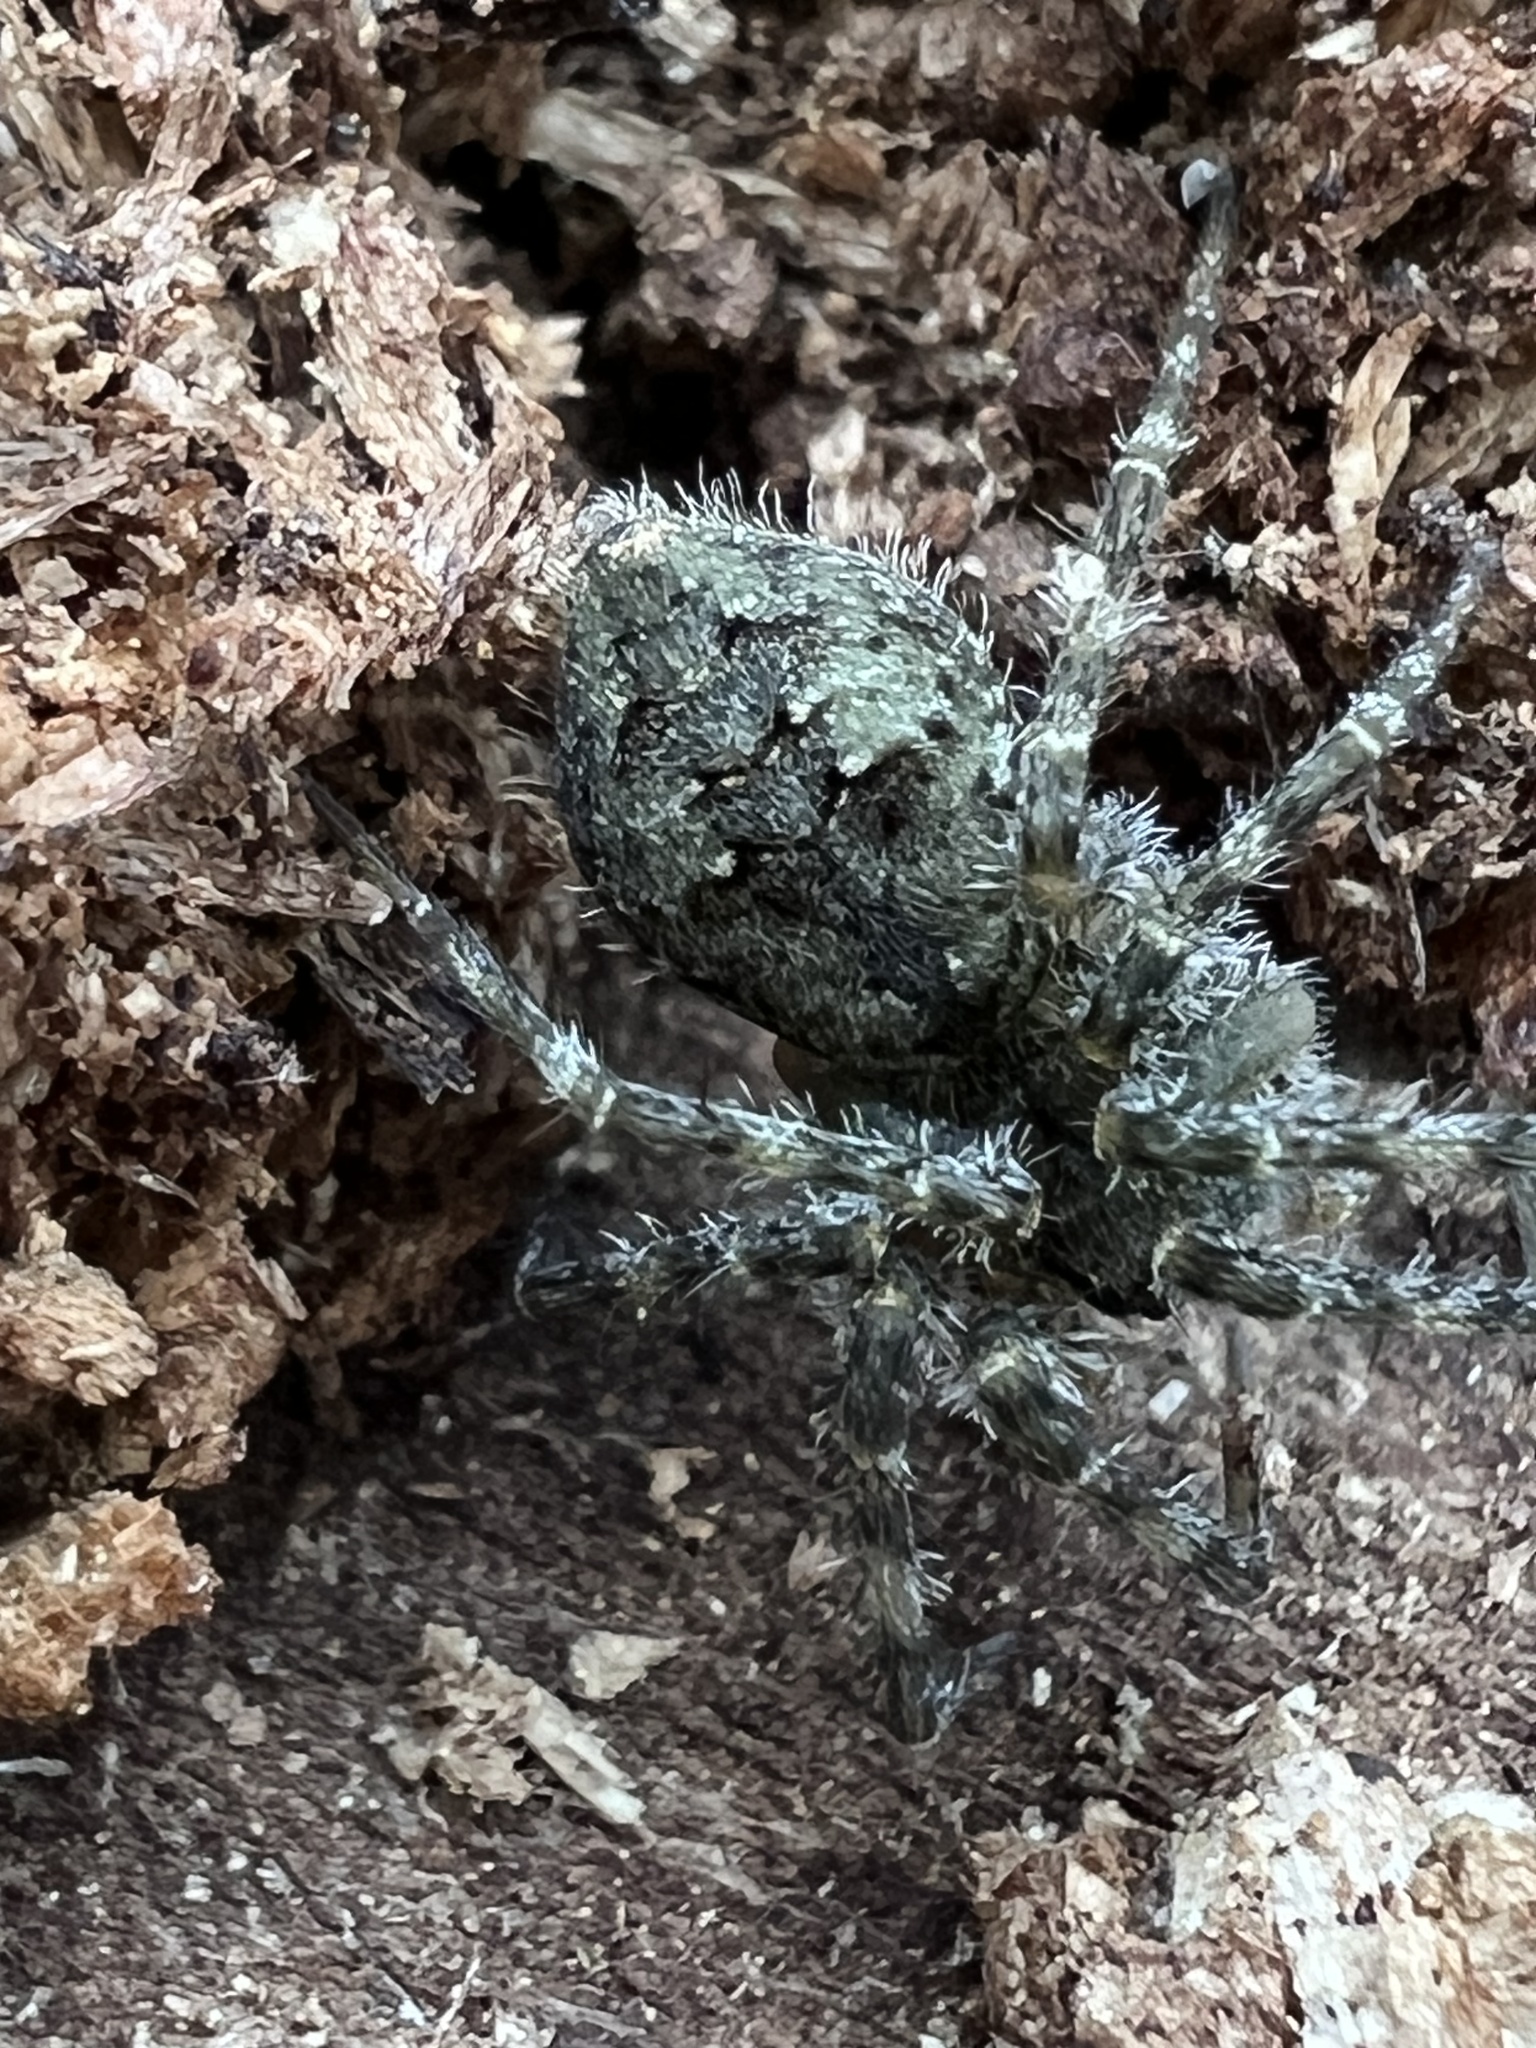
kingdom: Animalia
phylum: Arthropoda
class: Arachnida
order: Araneae
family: Pisauridae
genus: Dolomedes
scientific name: Dolomedes albineus
